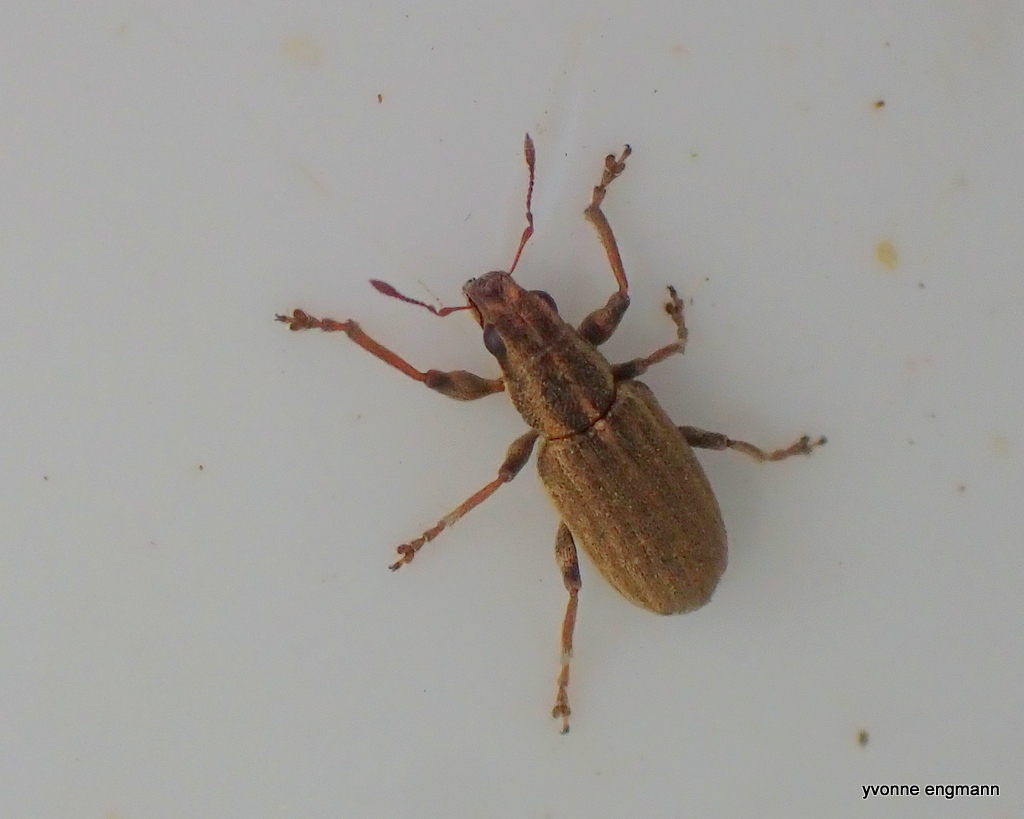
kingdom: Animalia
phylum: Arthropoda
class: Insecta
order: Coleoptera
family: Curculionidae
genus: Sitona
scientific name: Sitona lineatus
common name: Weevil
